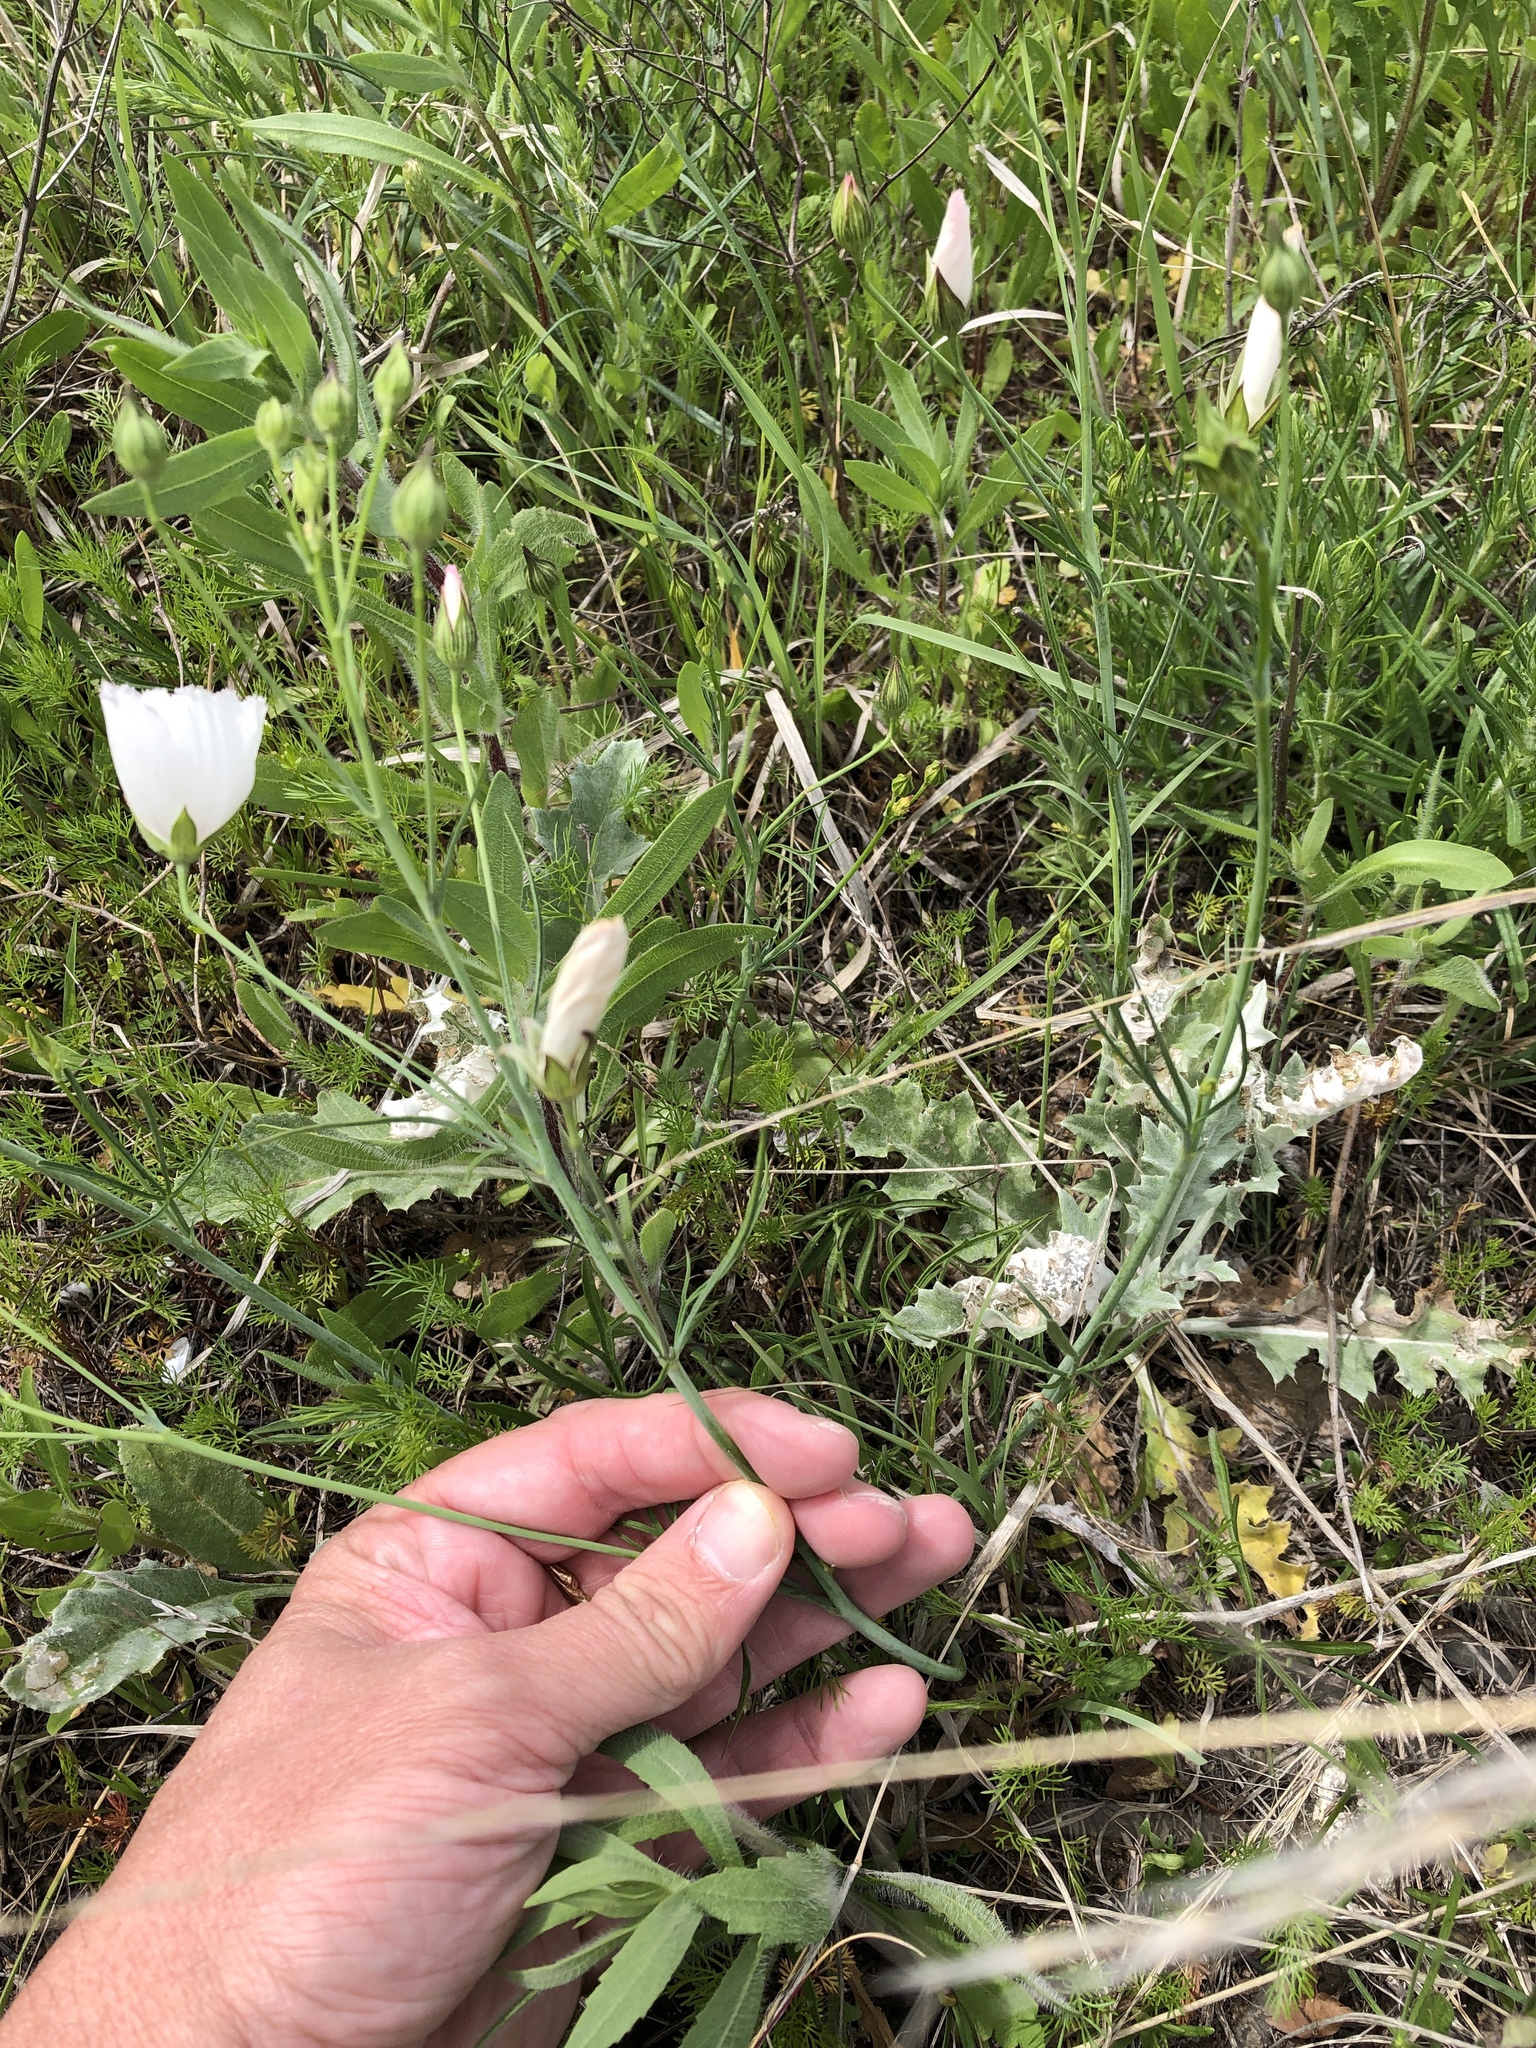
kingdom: Plantae
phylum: Tracheophyta
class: Magnoliopsida
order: Malvales
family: Malvaceae
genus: Callirhoe
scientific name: Callirhoe pedata
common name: Finger poppy-mallow
